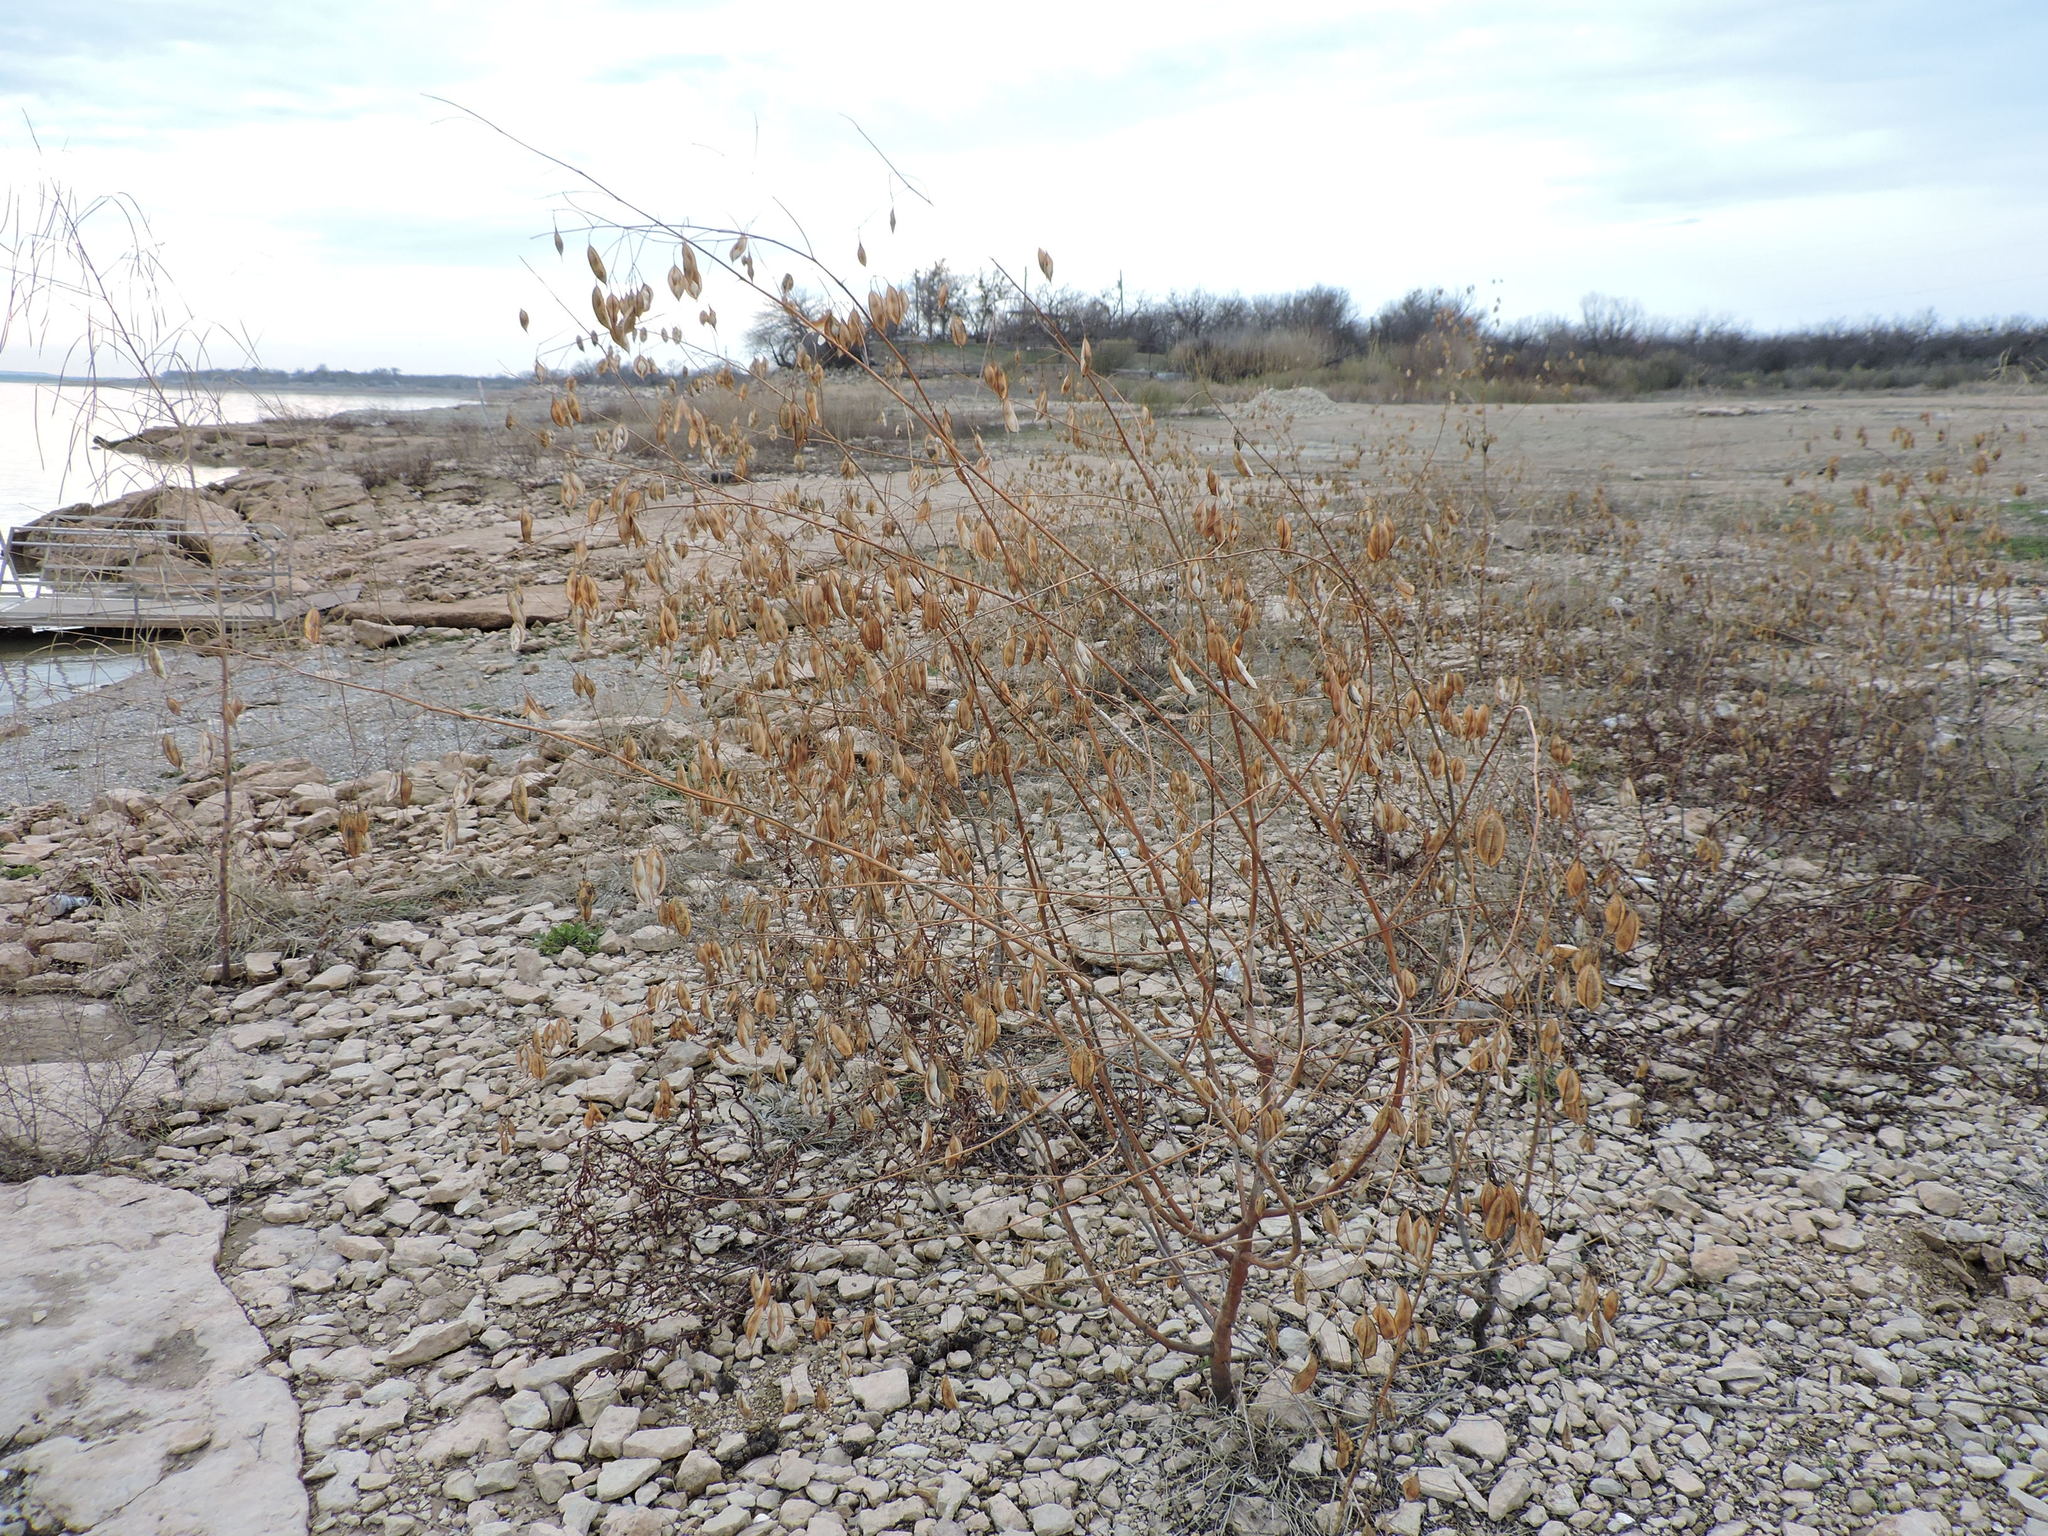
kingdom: Plantae
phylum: Tracheophyta
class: Magnoliopsida
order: Fabales
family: Fabaceae
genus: Sesbania
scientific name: Sesbania vesicaria
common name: Bagpod
